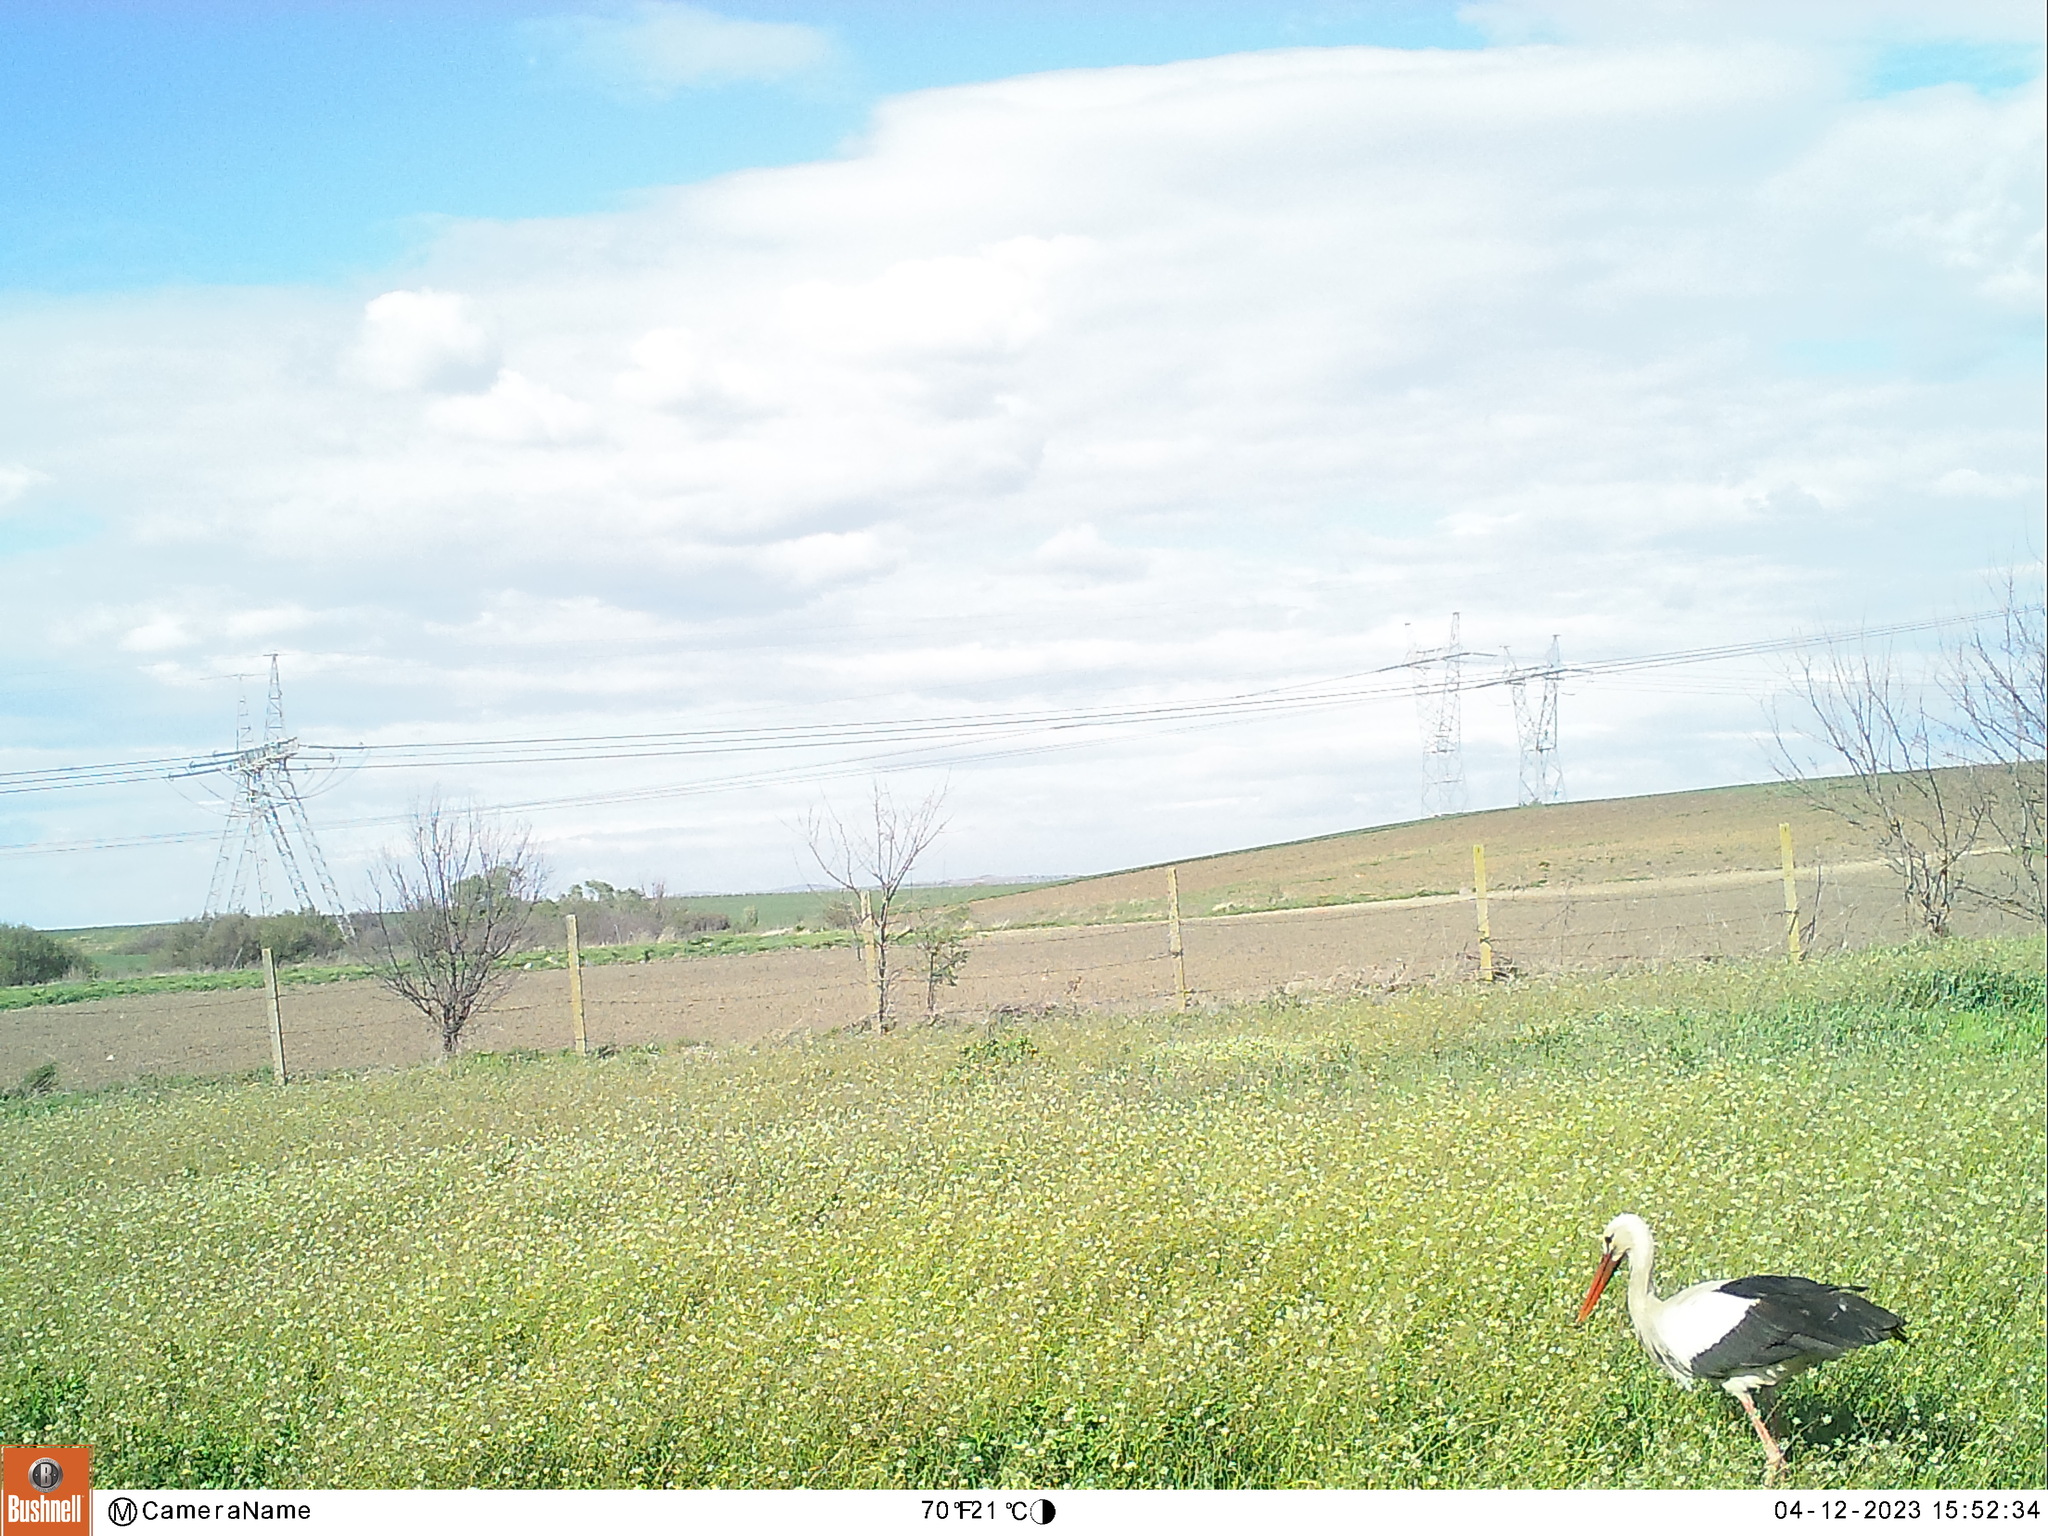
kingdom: Animalia
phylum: Chordata
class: Aves
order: Ciconiiformes
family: Ciconiidae
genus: Ciconia
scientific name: Ciconia ciconia
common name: White stork
